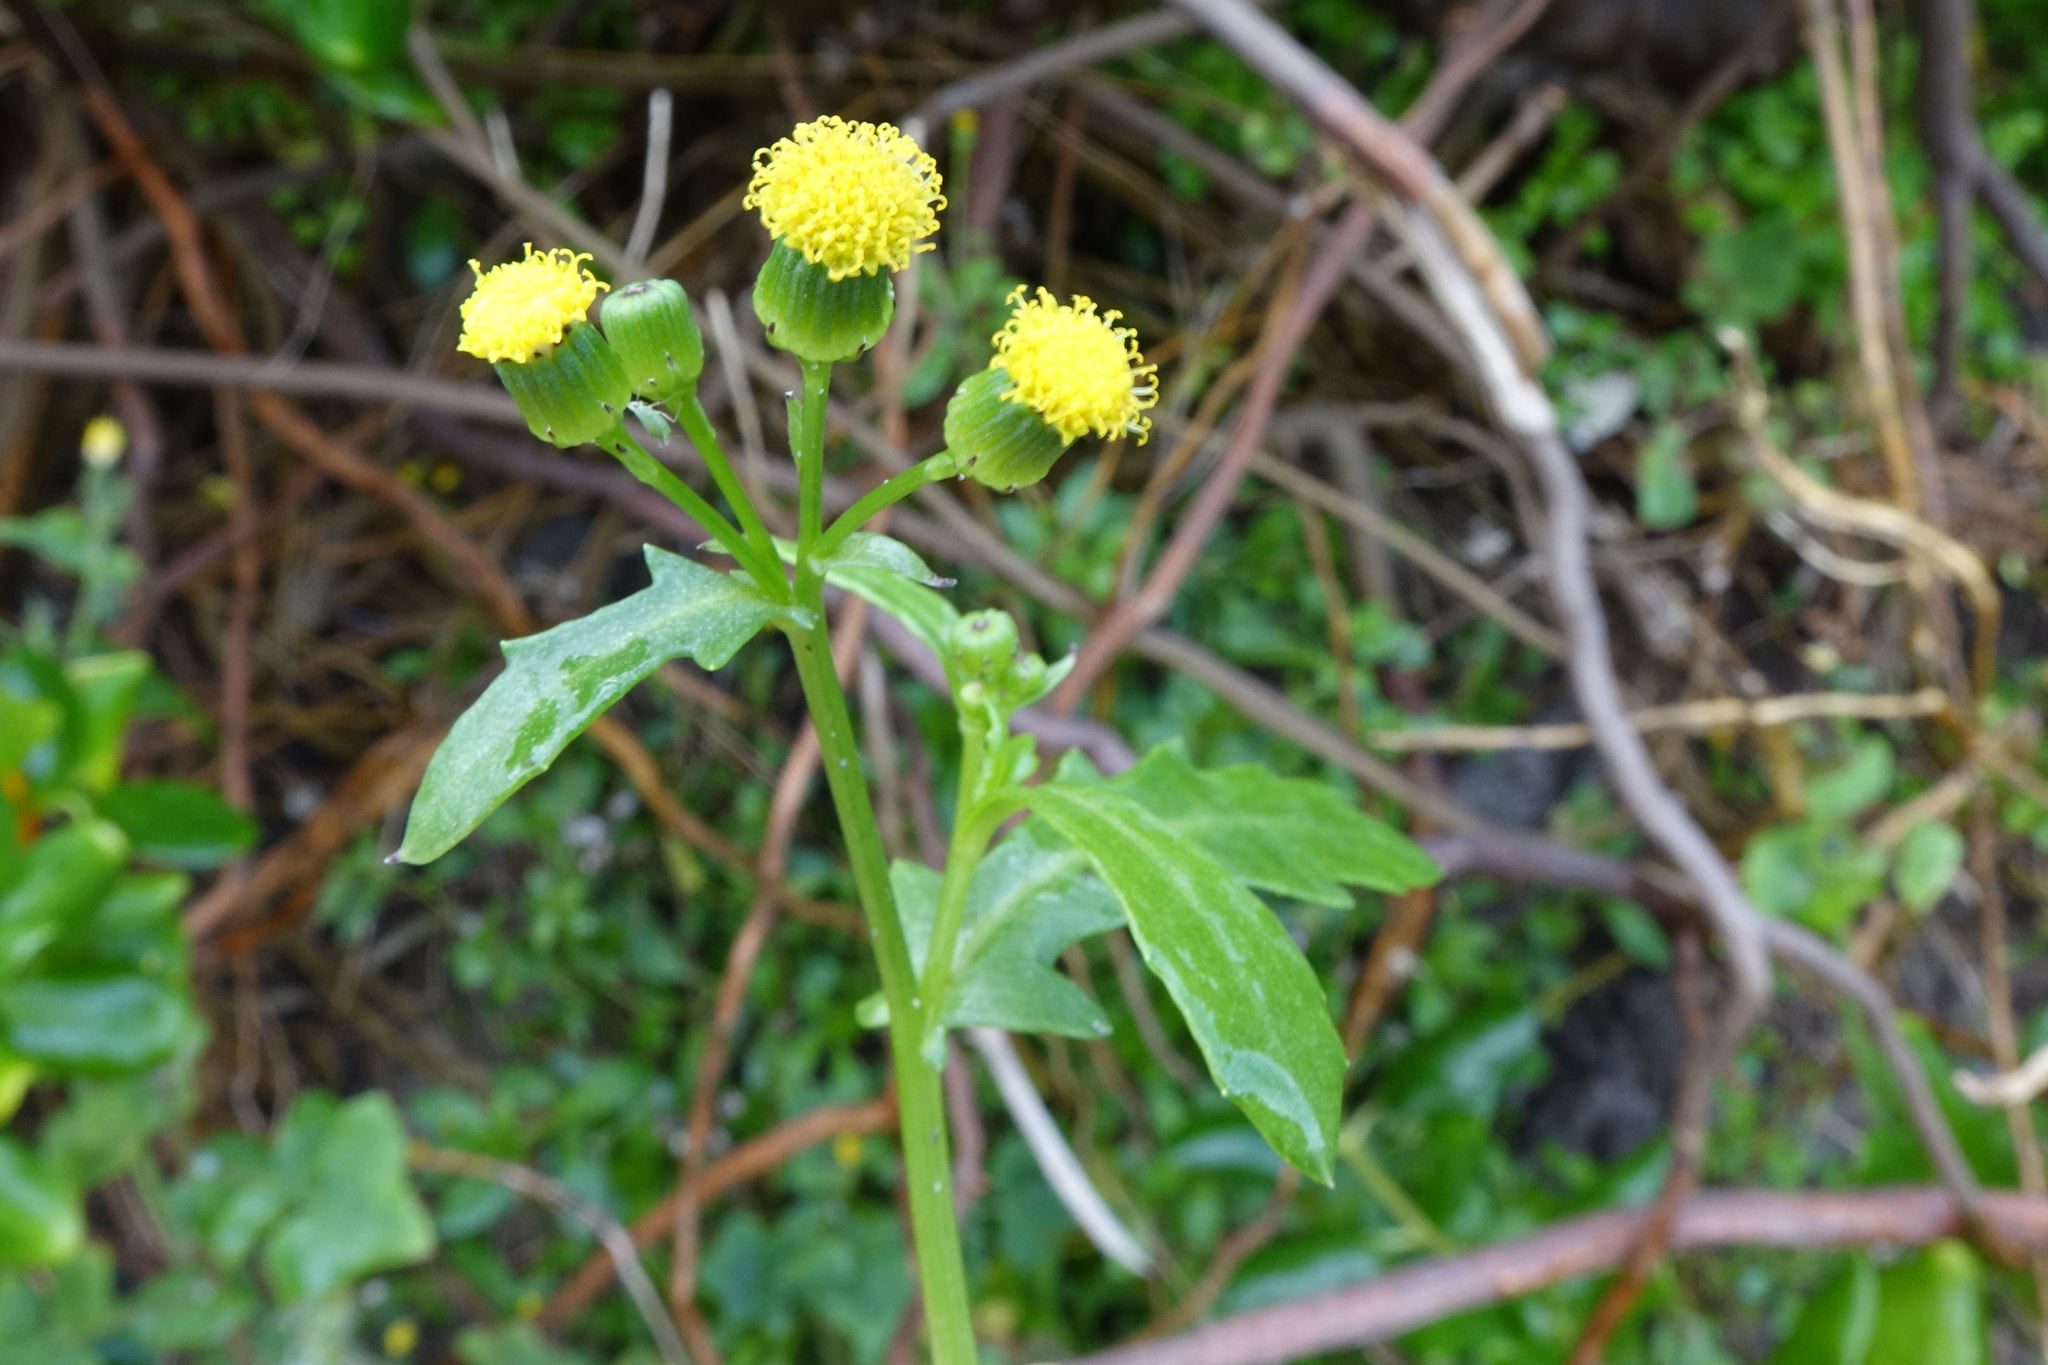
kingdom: Plantae
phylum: Tracheophyta
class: Magnoliopsida
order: Asterales
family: Asteraceae
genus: Senecio
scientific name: Senecio matatini
